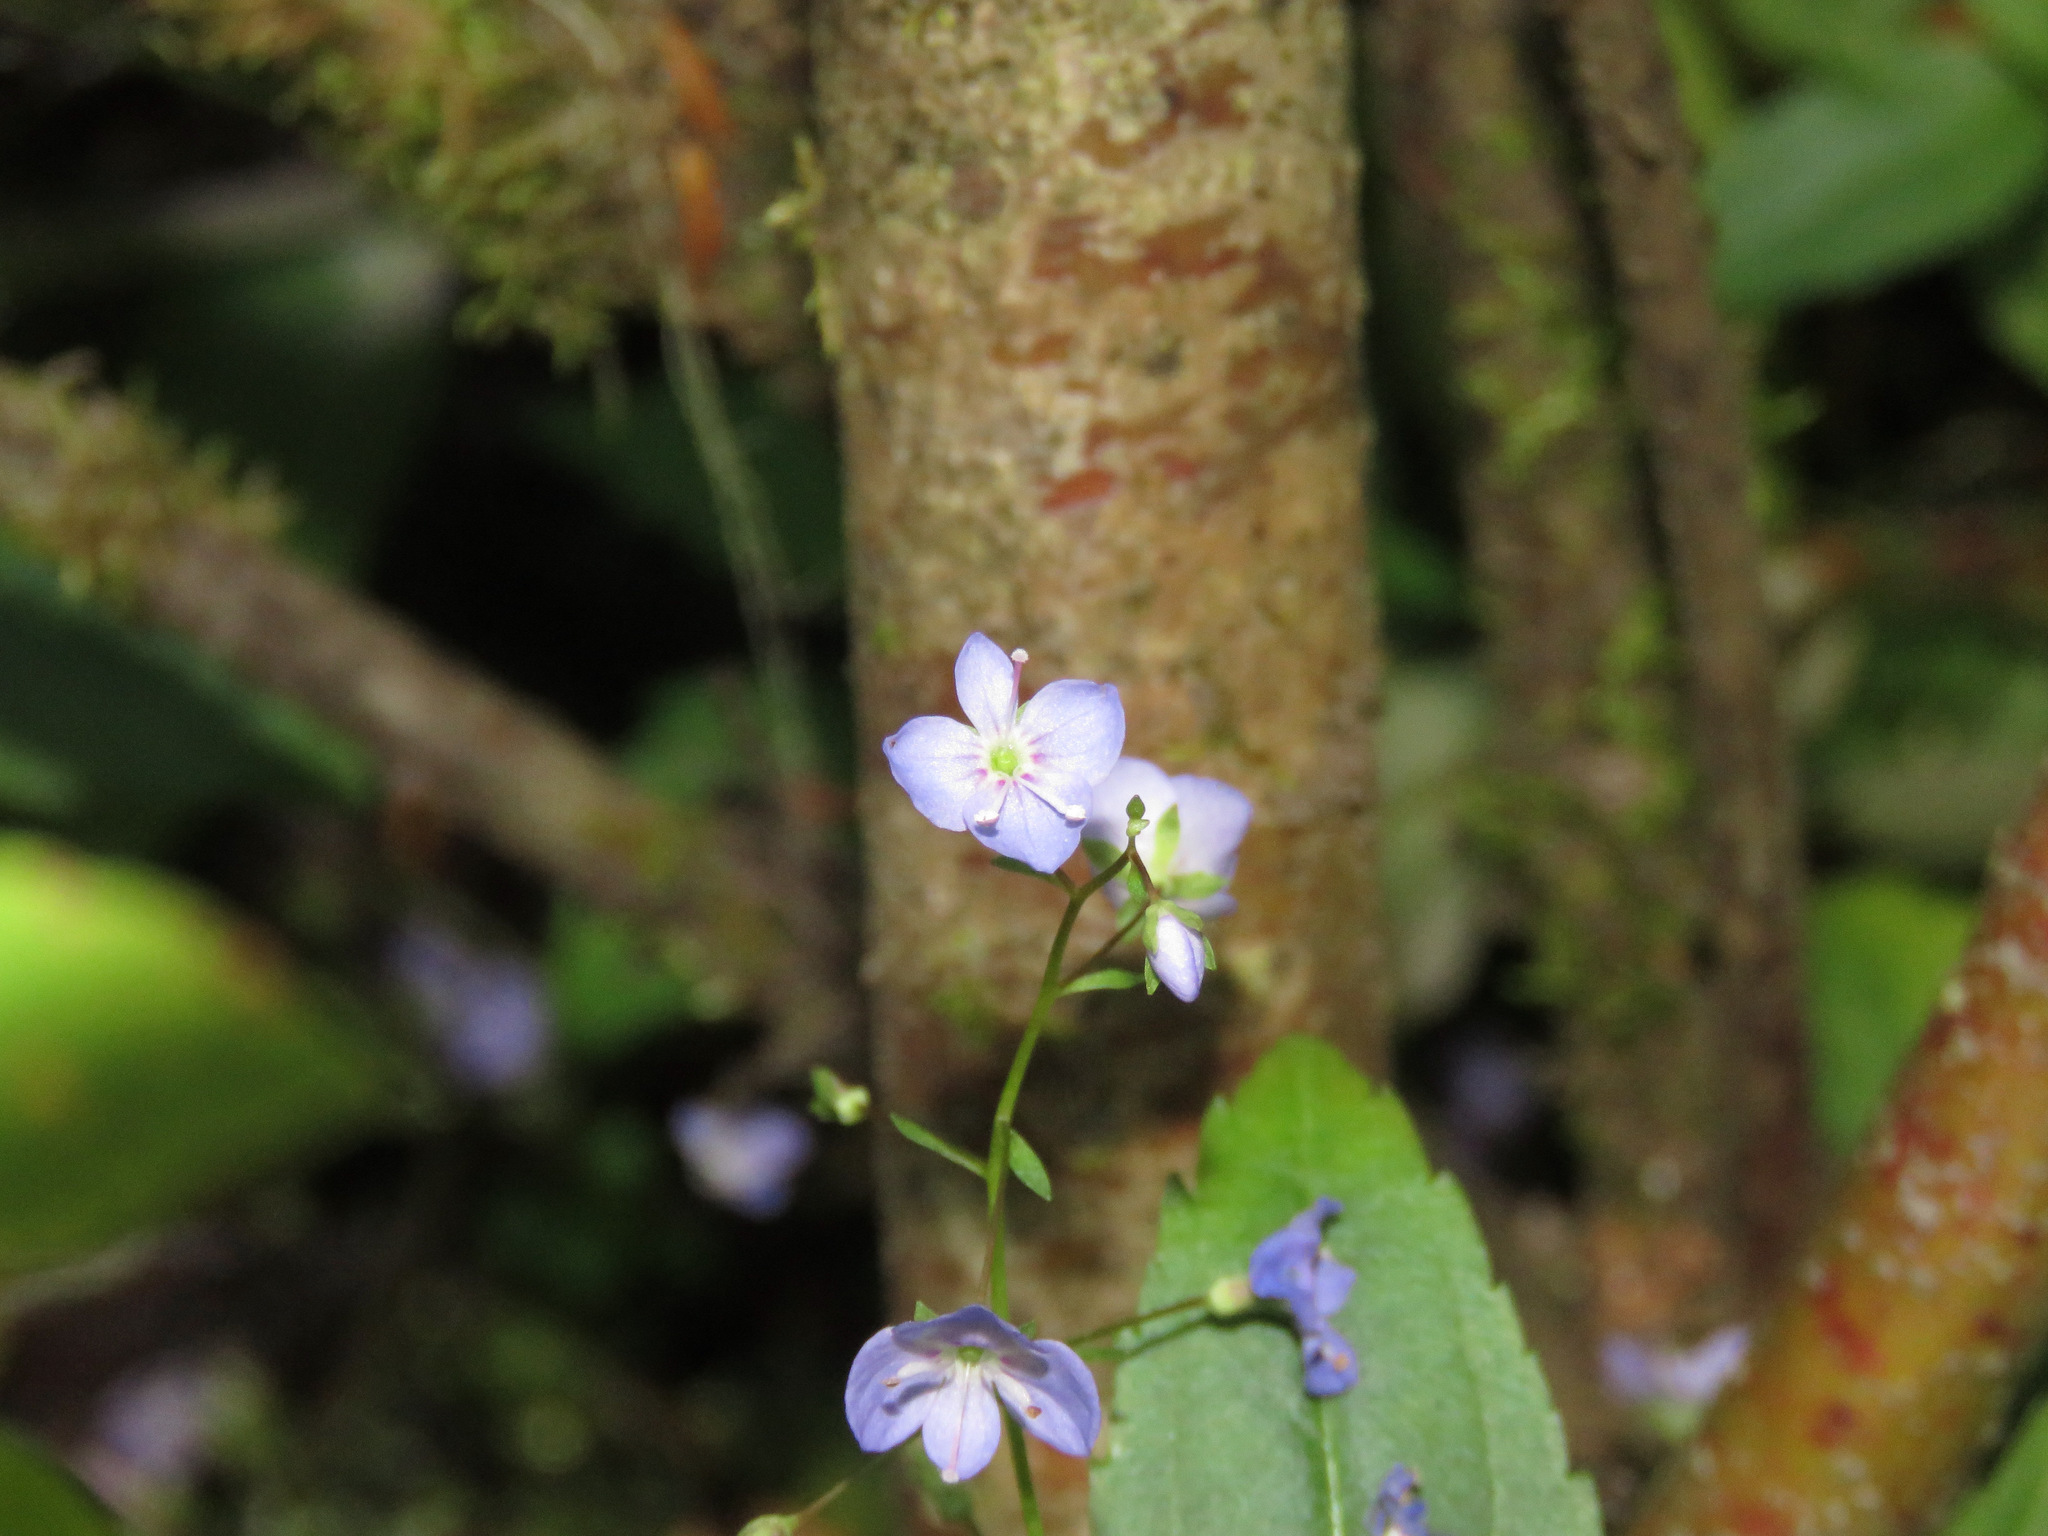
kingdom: Plantae
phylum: Tracheophyta
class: Magnoliopsida
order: Lamiales
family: Plantaginaceae
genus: Veronica
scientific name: Veronica americana
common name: American brooklime
